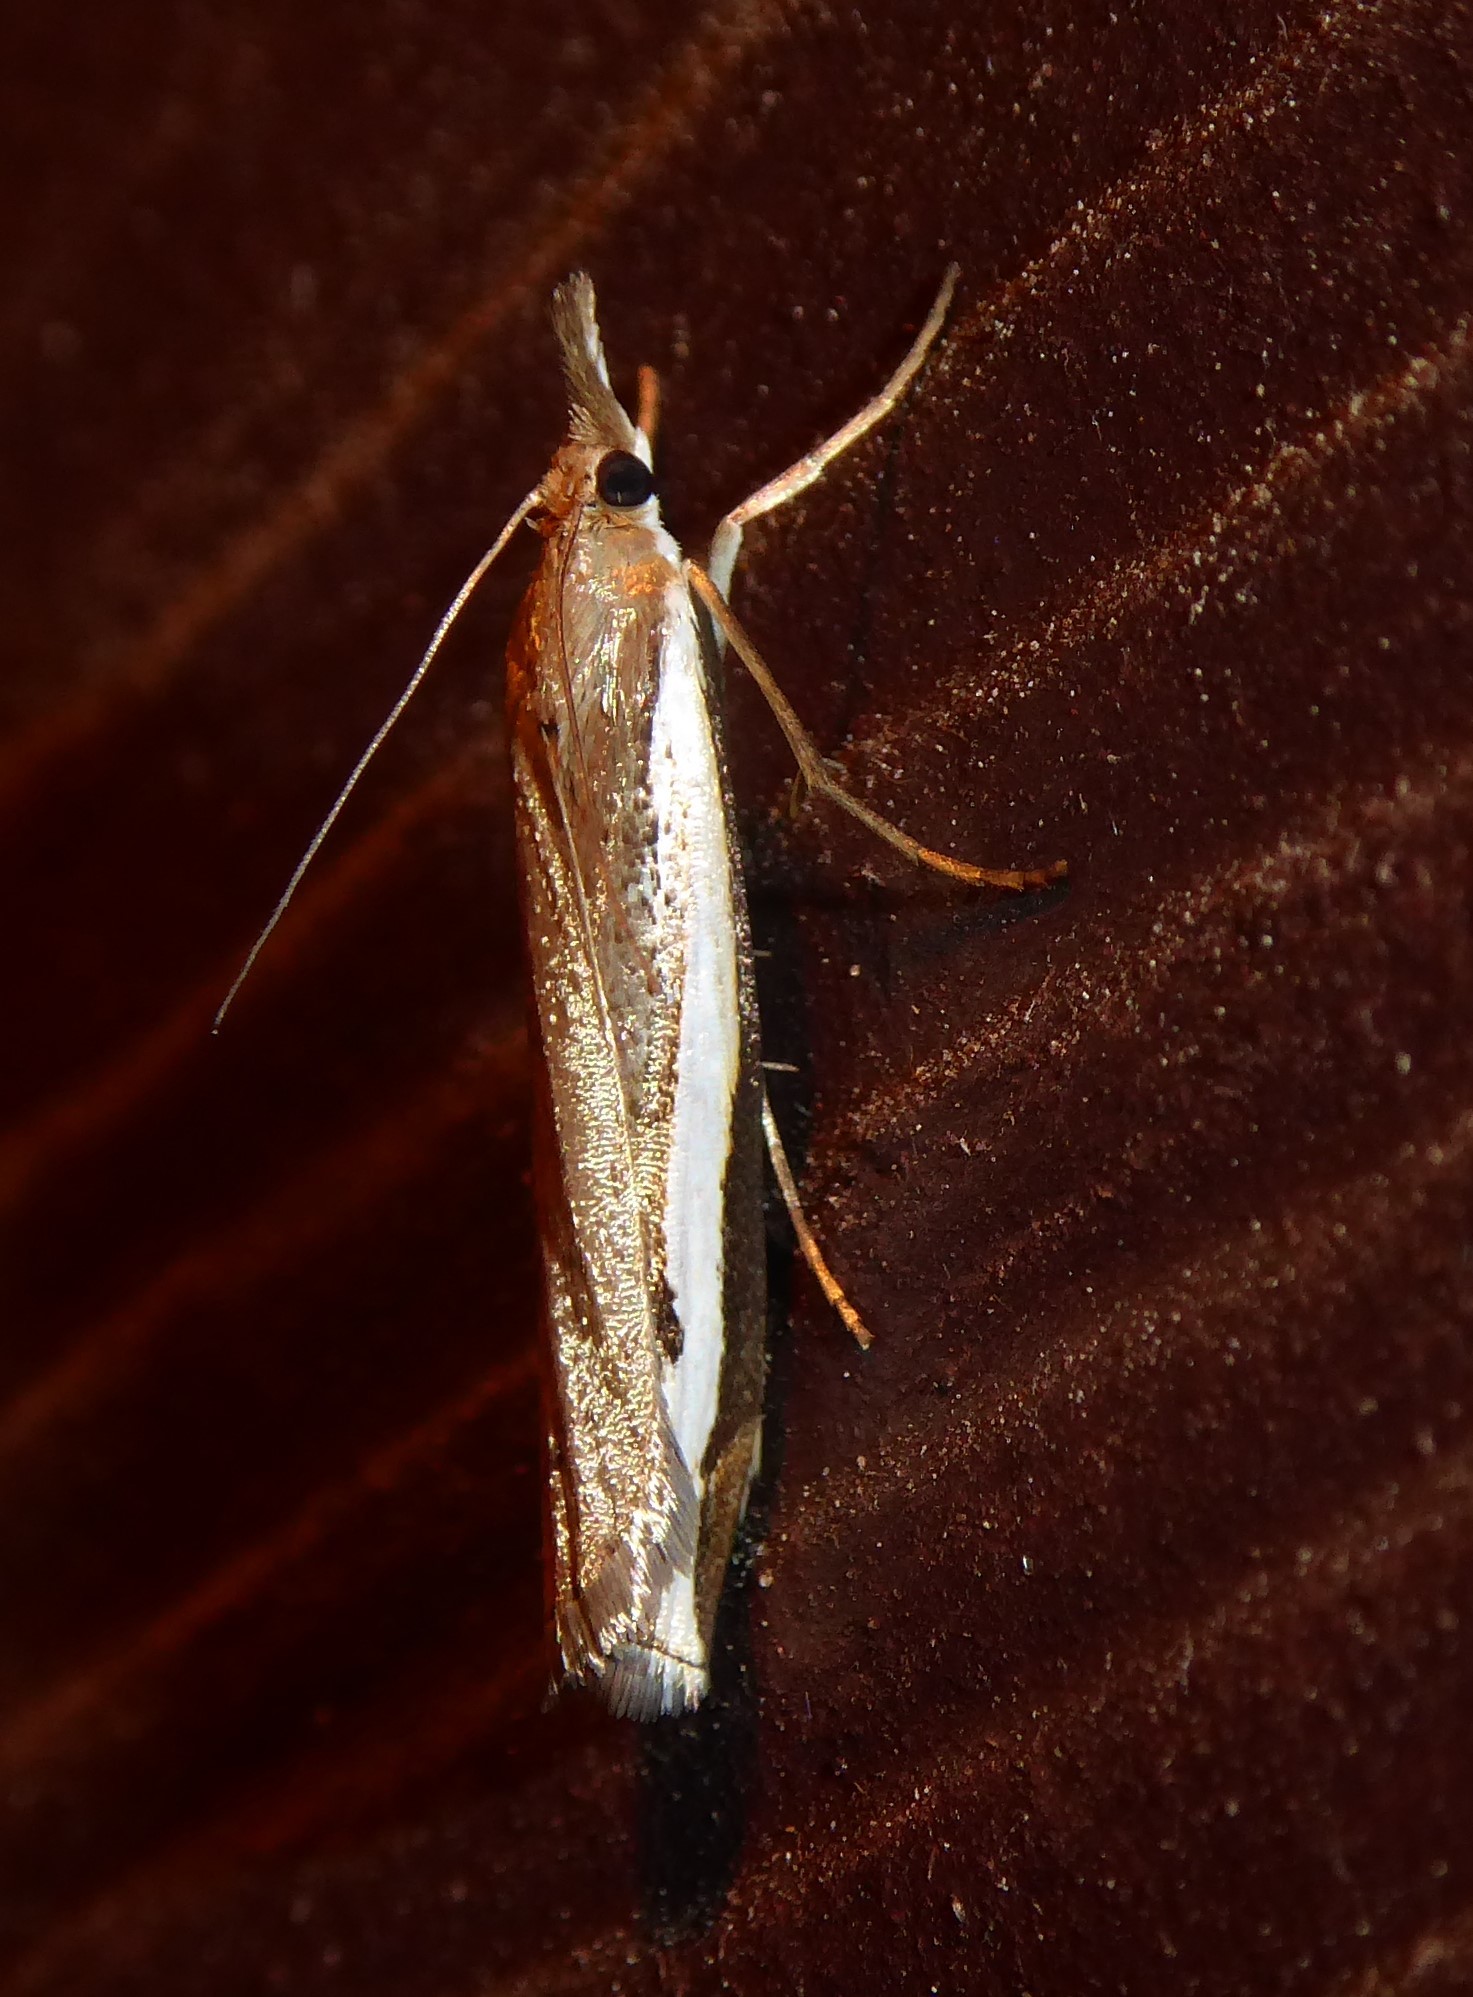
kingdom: Animalia
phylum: Arthropoda
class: Insecta
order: Lepidoptera
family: Crambidae
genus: Orocrambus
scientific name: Orocrambus flexuosellus
